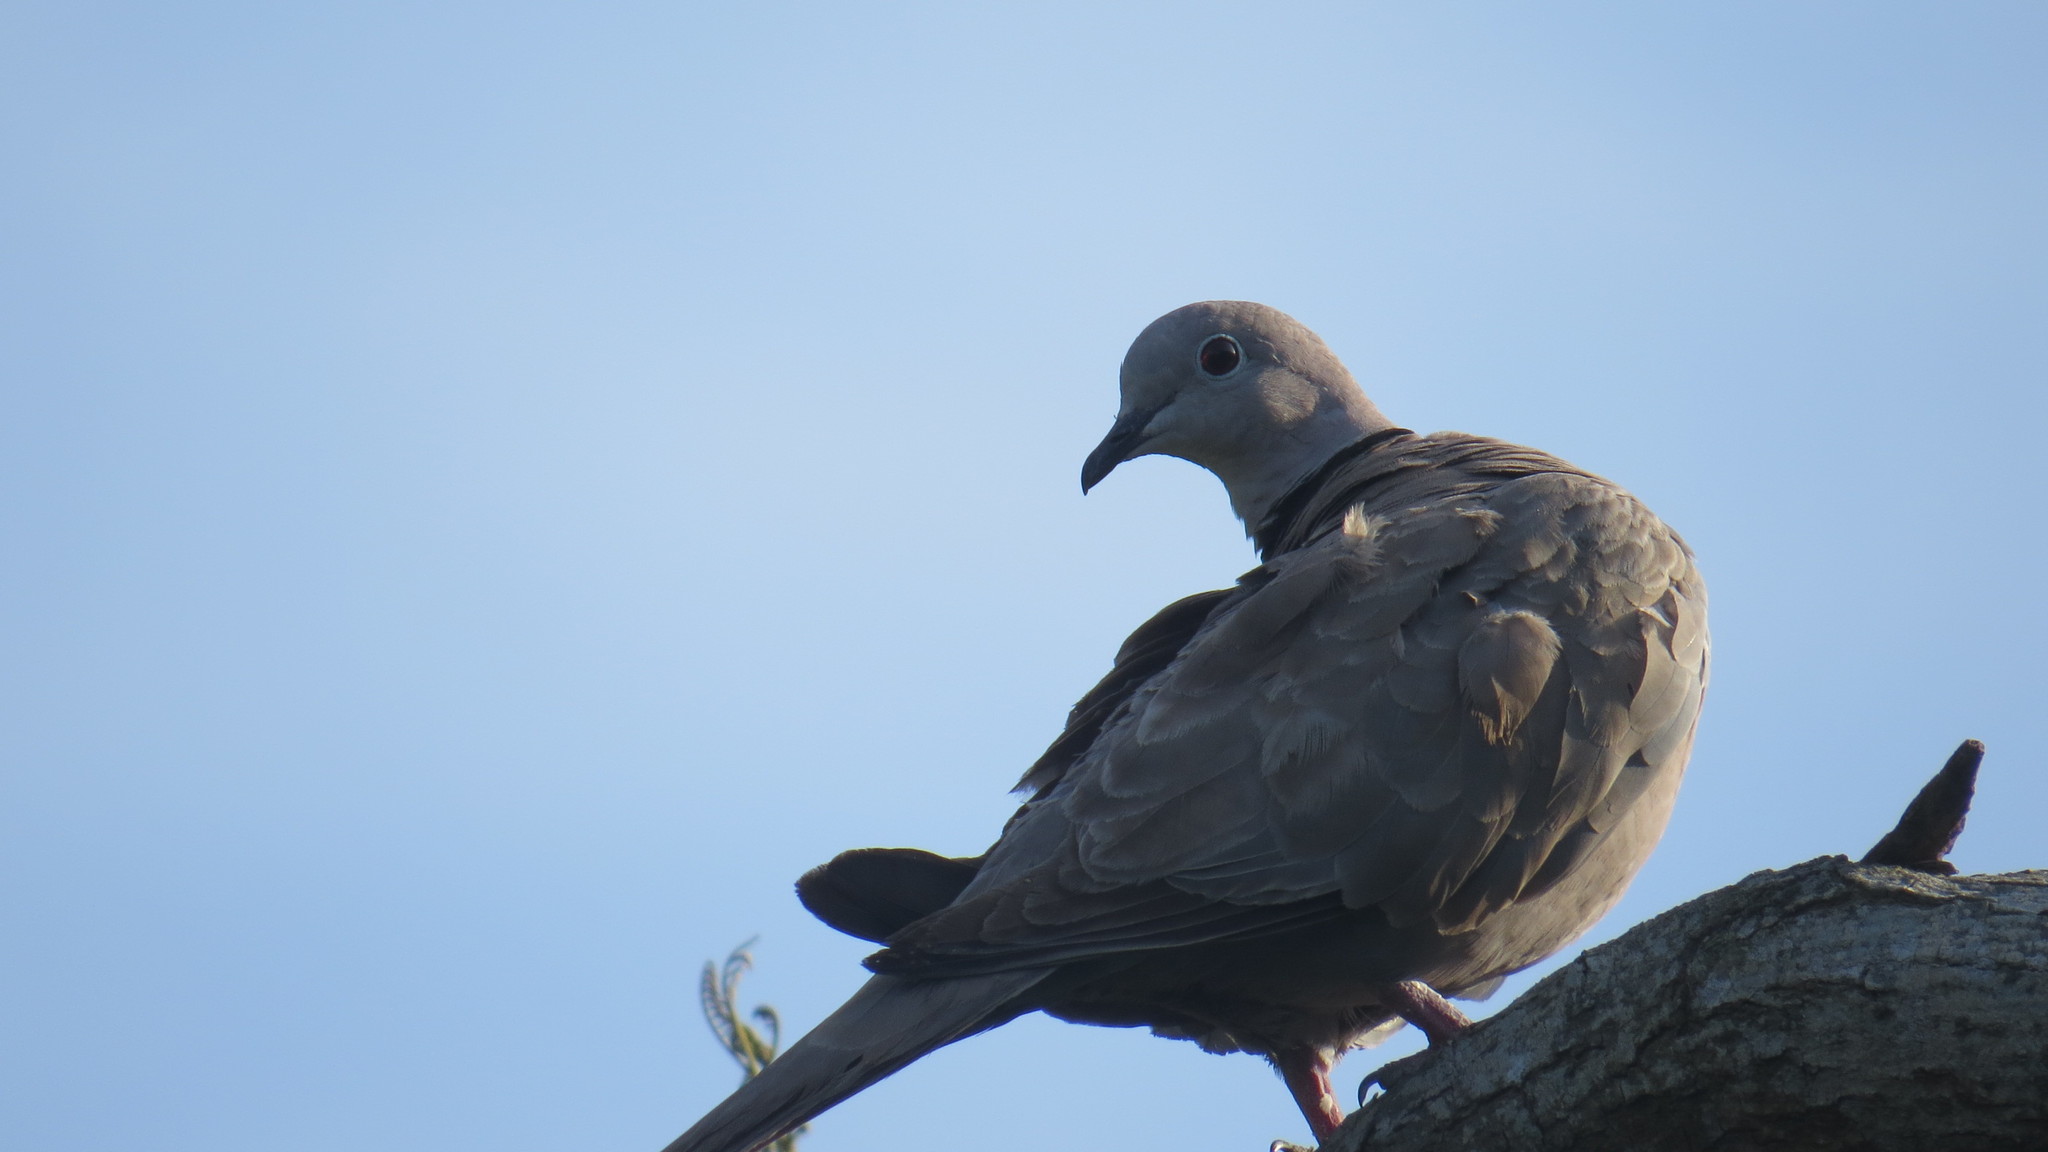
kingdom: Animalia
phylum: Chordata
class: Aves
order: Columbiformes
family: Columbidae
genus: Streptopelia
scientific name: Streptopelia decaocto
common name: Eurasian collared dove
